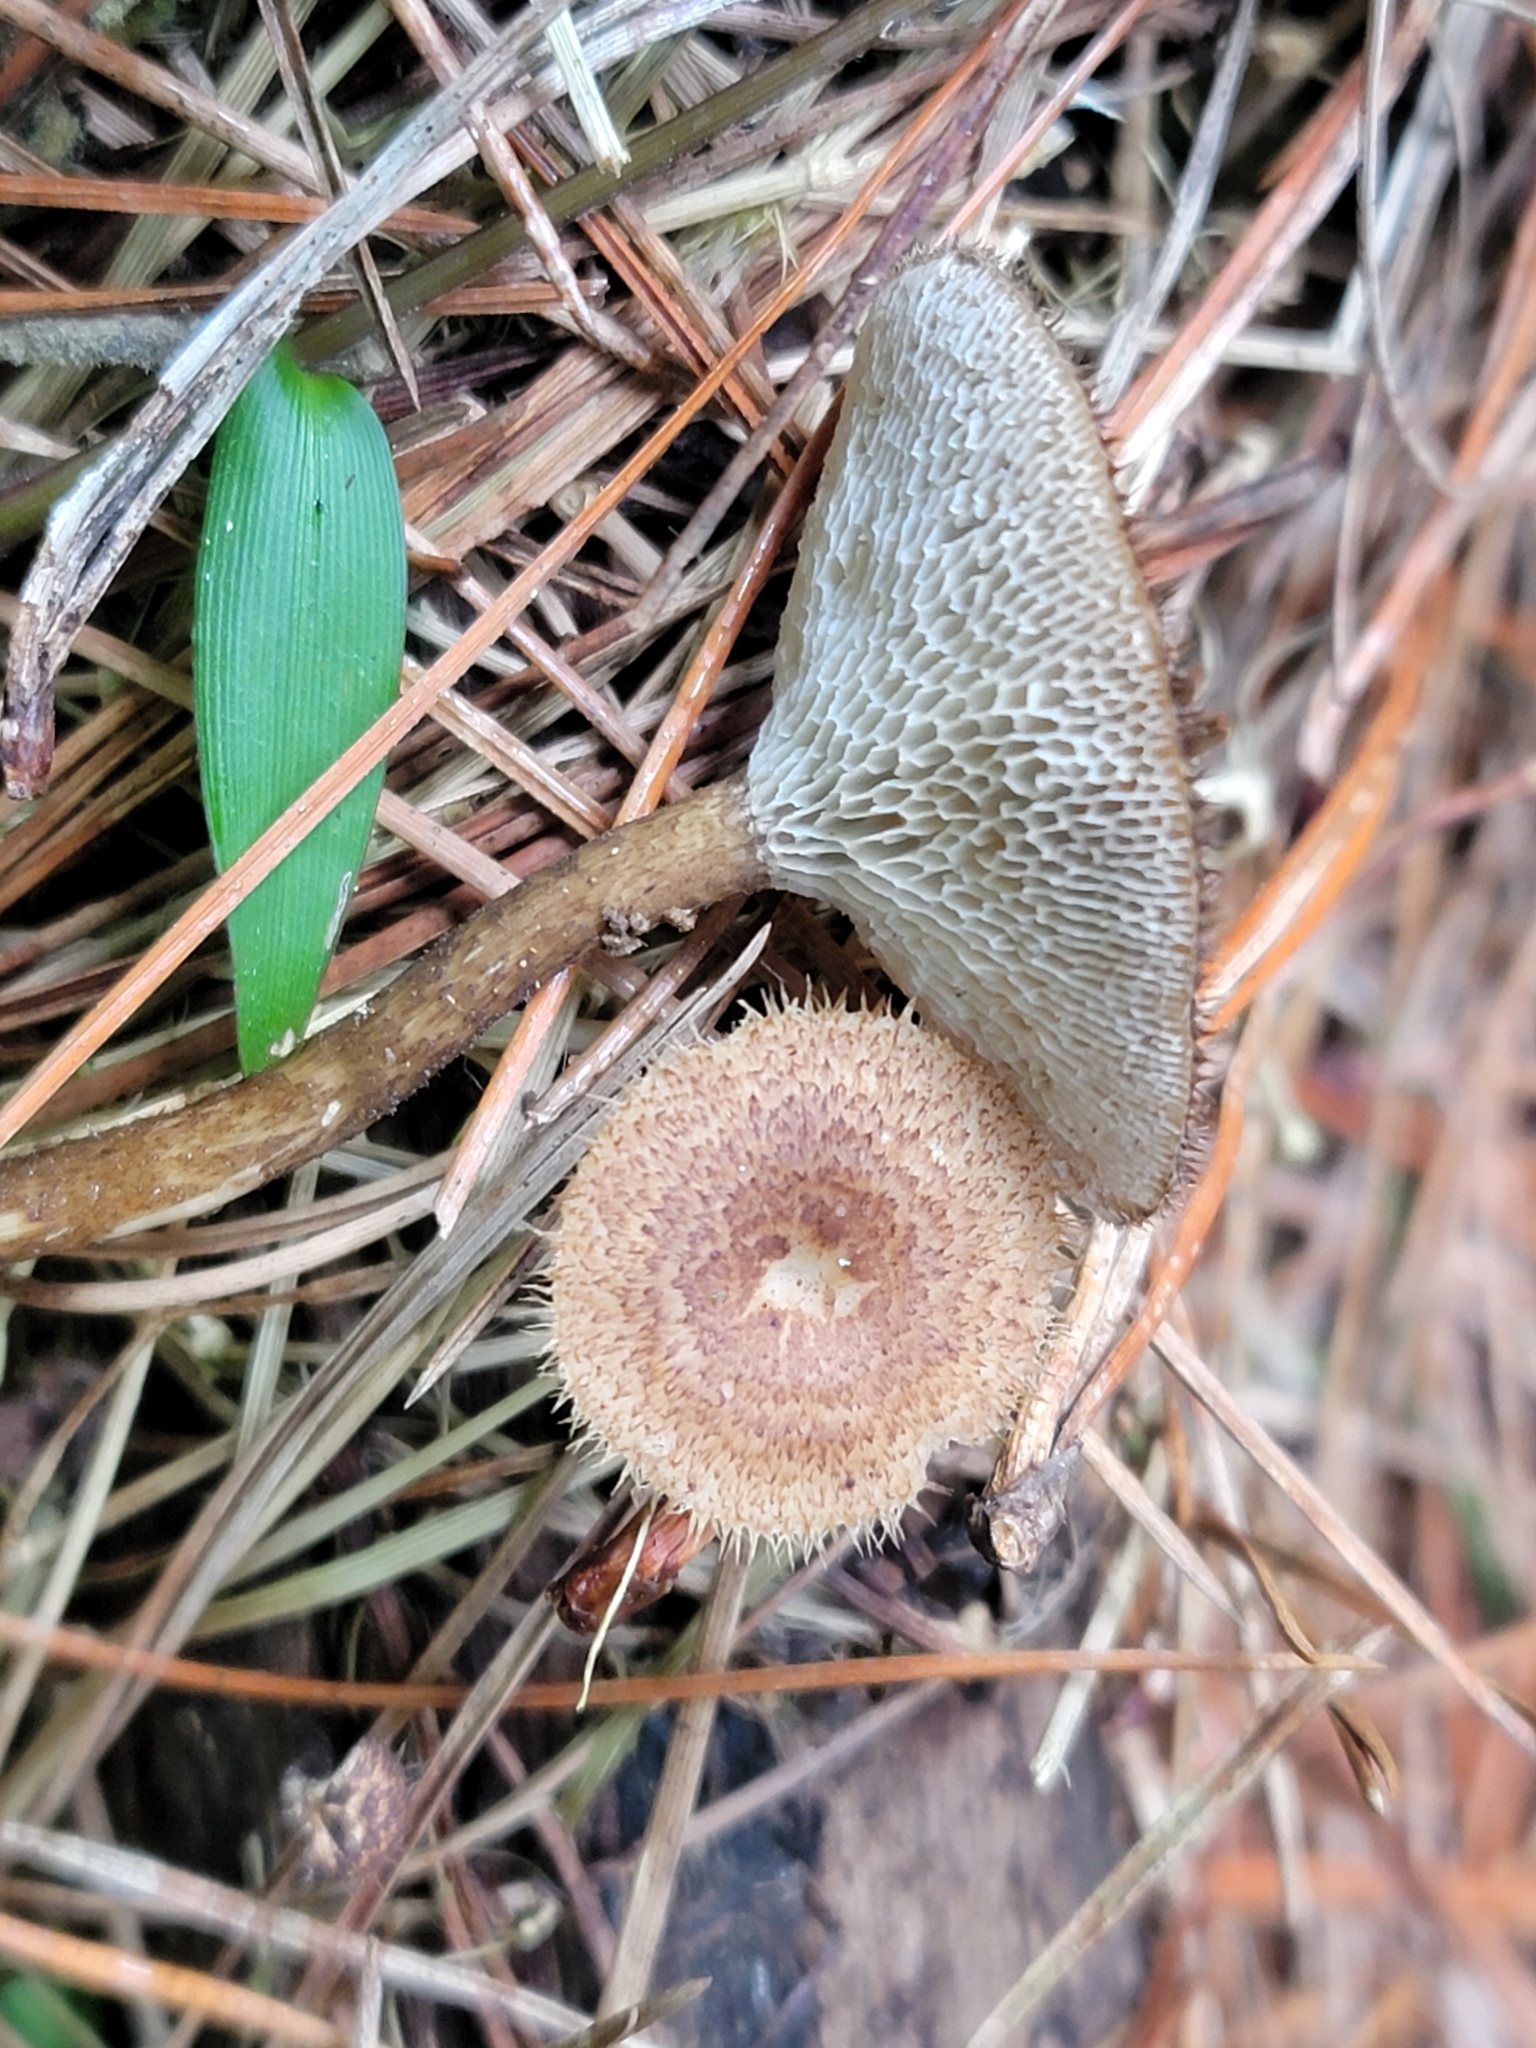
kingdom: Fungi
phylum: Basidiomycota
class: Agaricomycetes
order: Polyporales
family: Polyporaceae
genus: Lentinus
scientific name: Lentinus arcularius
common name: Spring polypore
